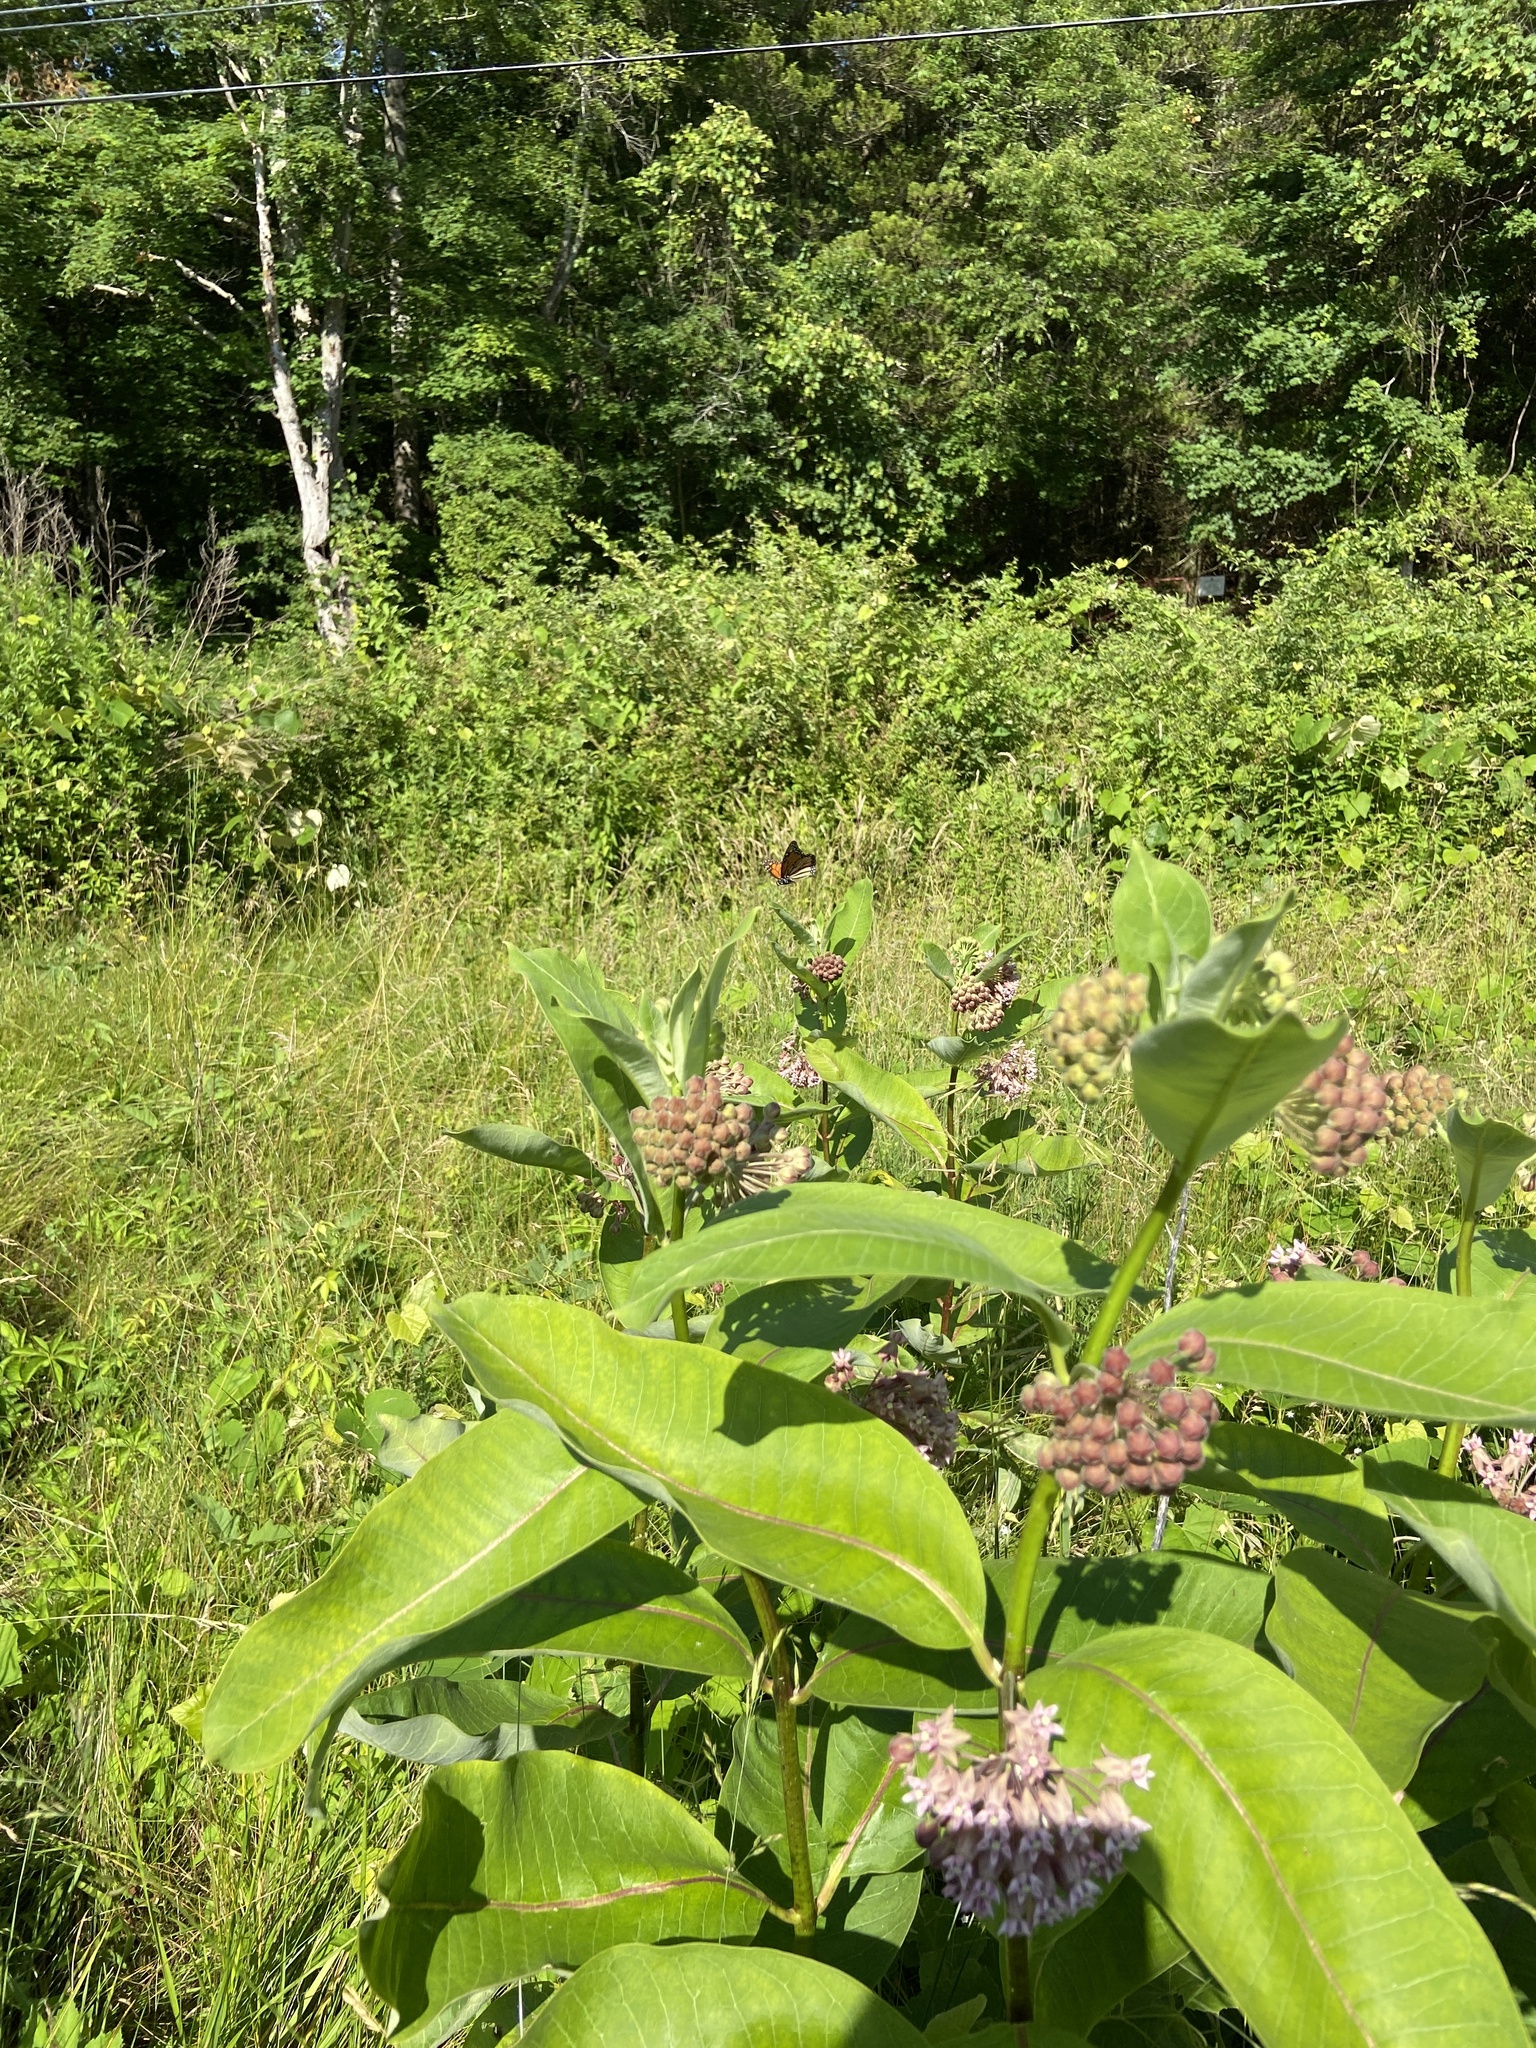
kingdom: Animalia
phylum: Arthropoda
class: Insecta
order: Lepidoptera
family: Nymphalidae
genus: Danaus
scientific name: Danaus plexippus
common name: Monarch
